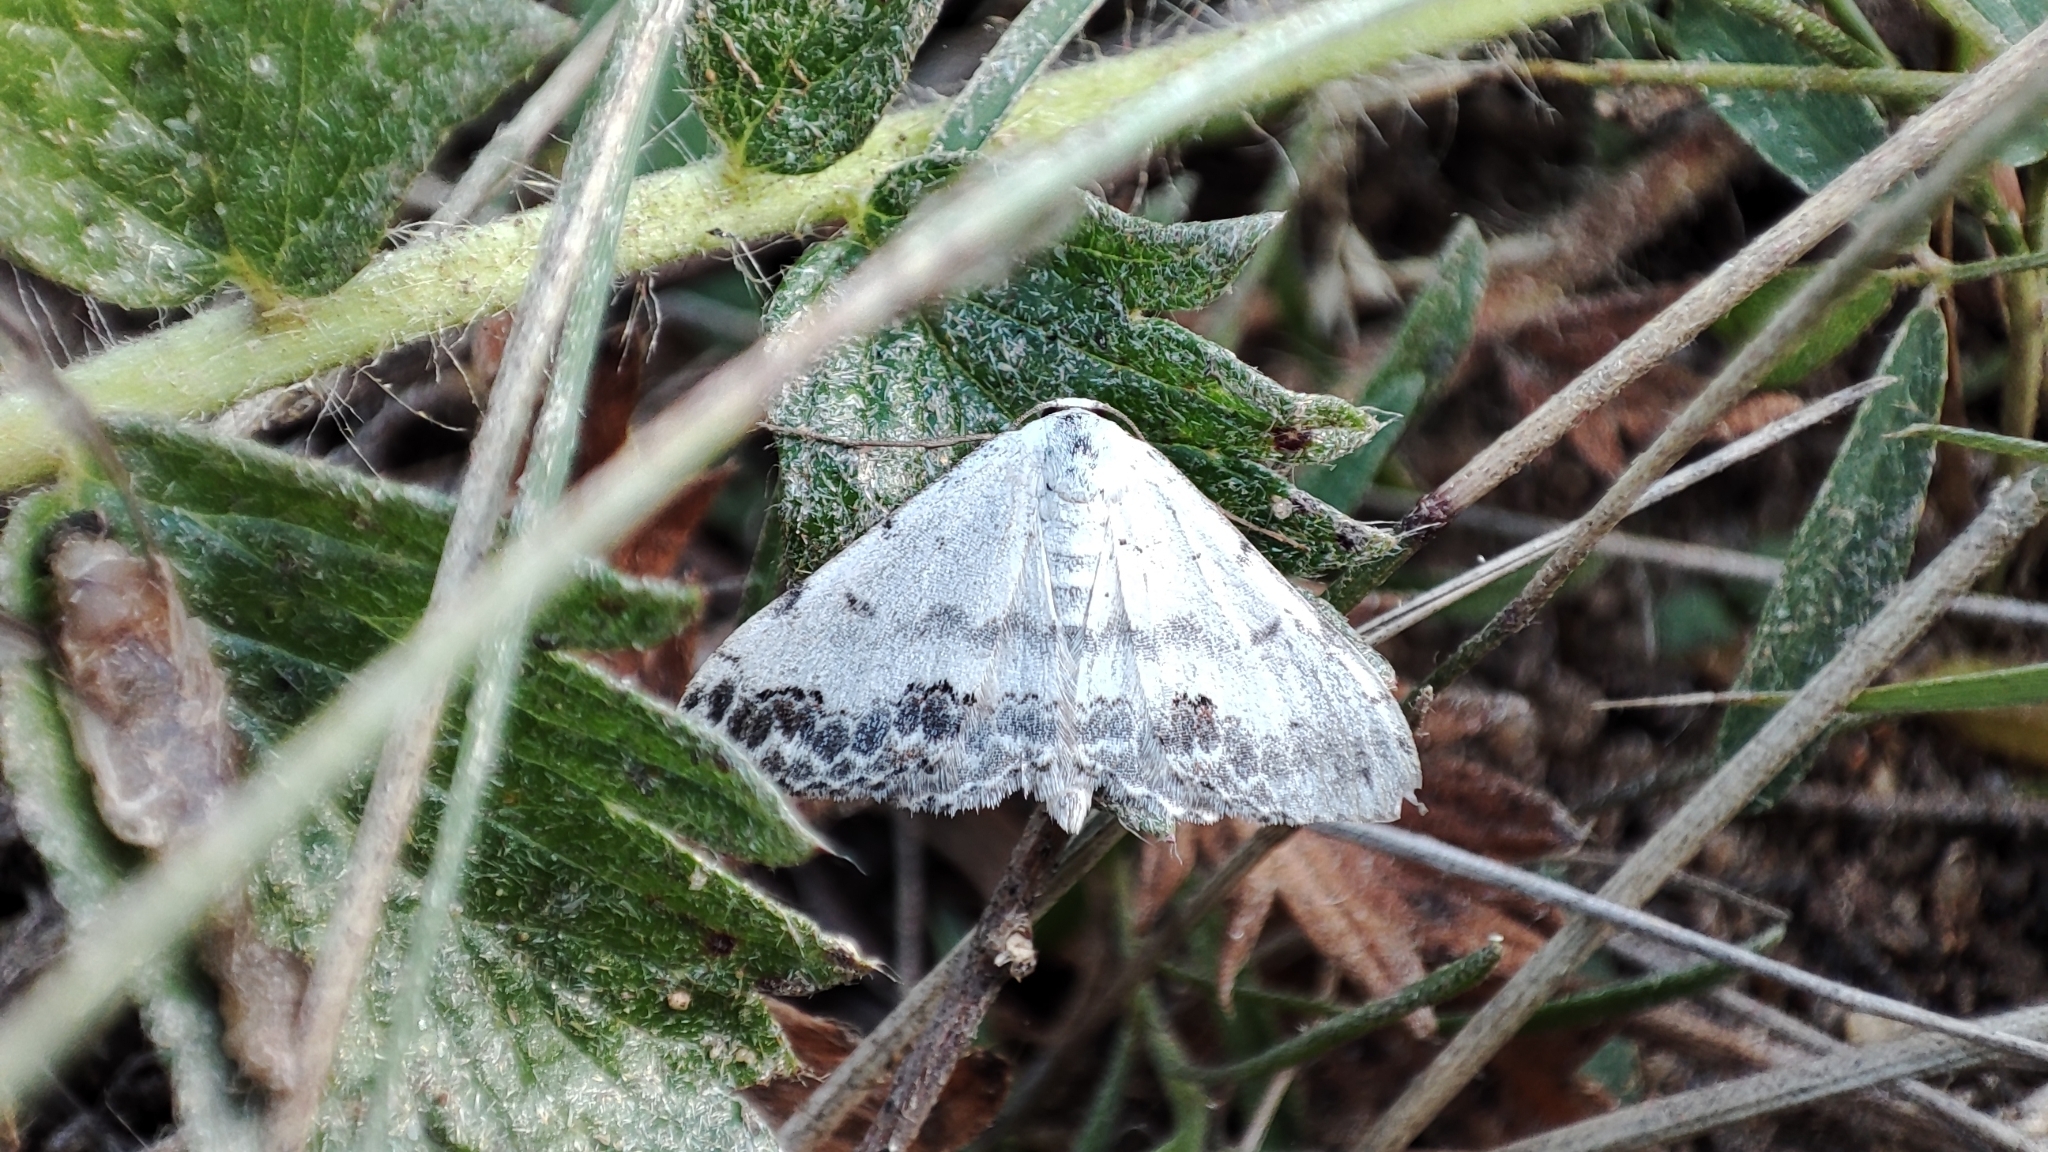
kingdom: Animalia
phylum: Arthropoda
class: Insecta
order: Lepidoptera
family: Geometridae
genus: Scopula
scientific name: Scopula decorata
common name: Middle lace border
